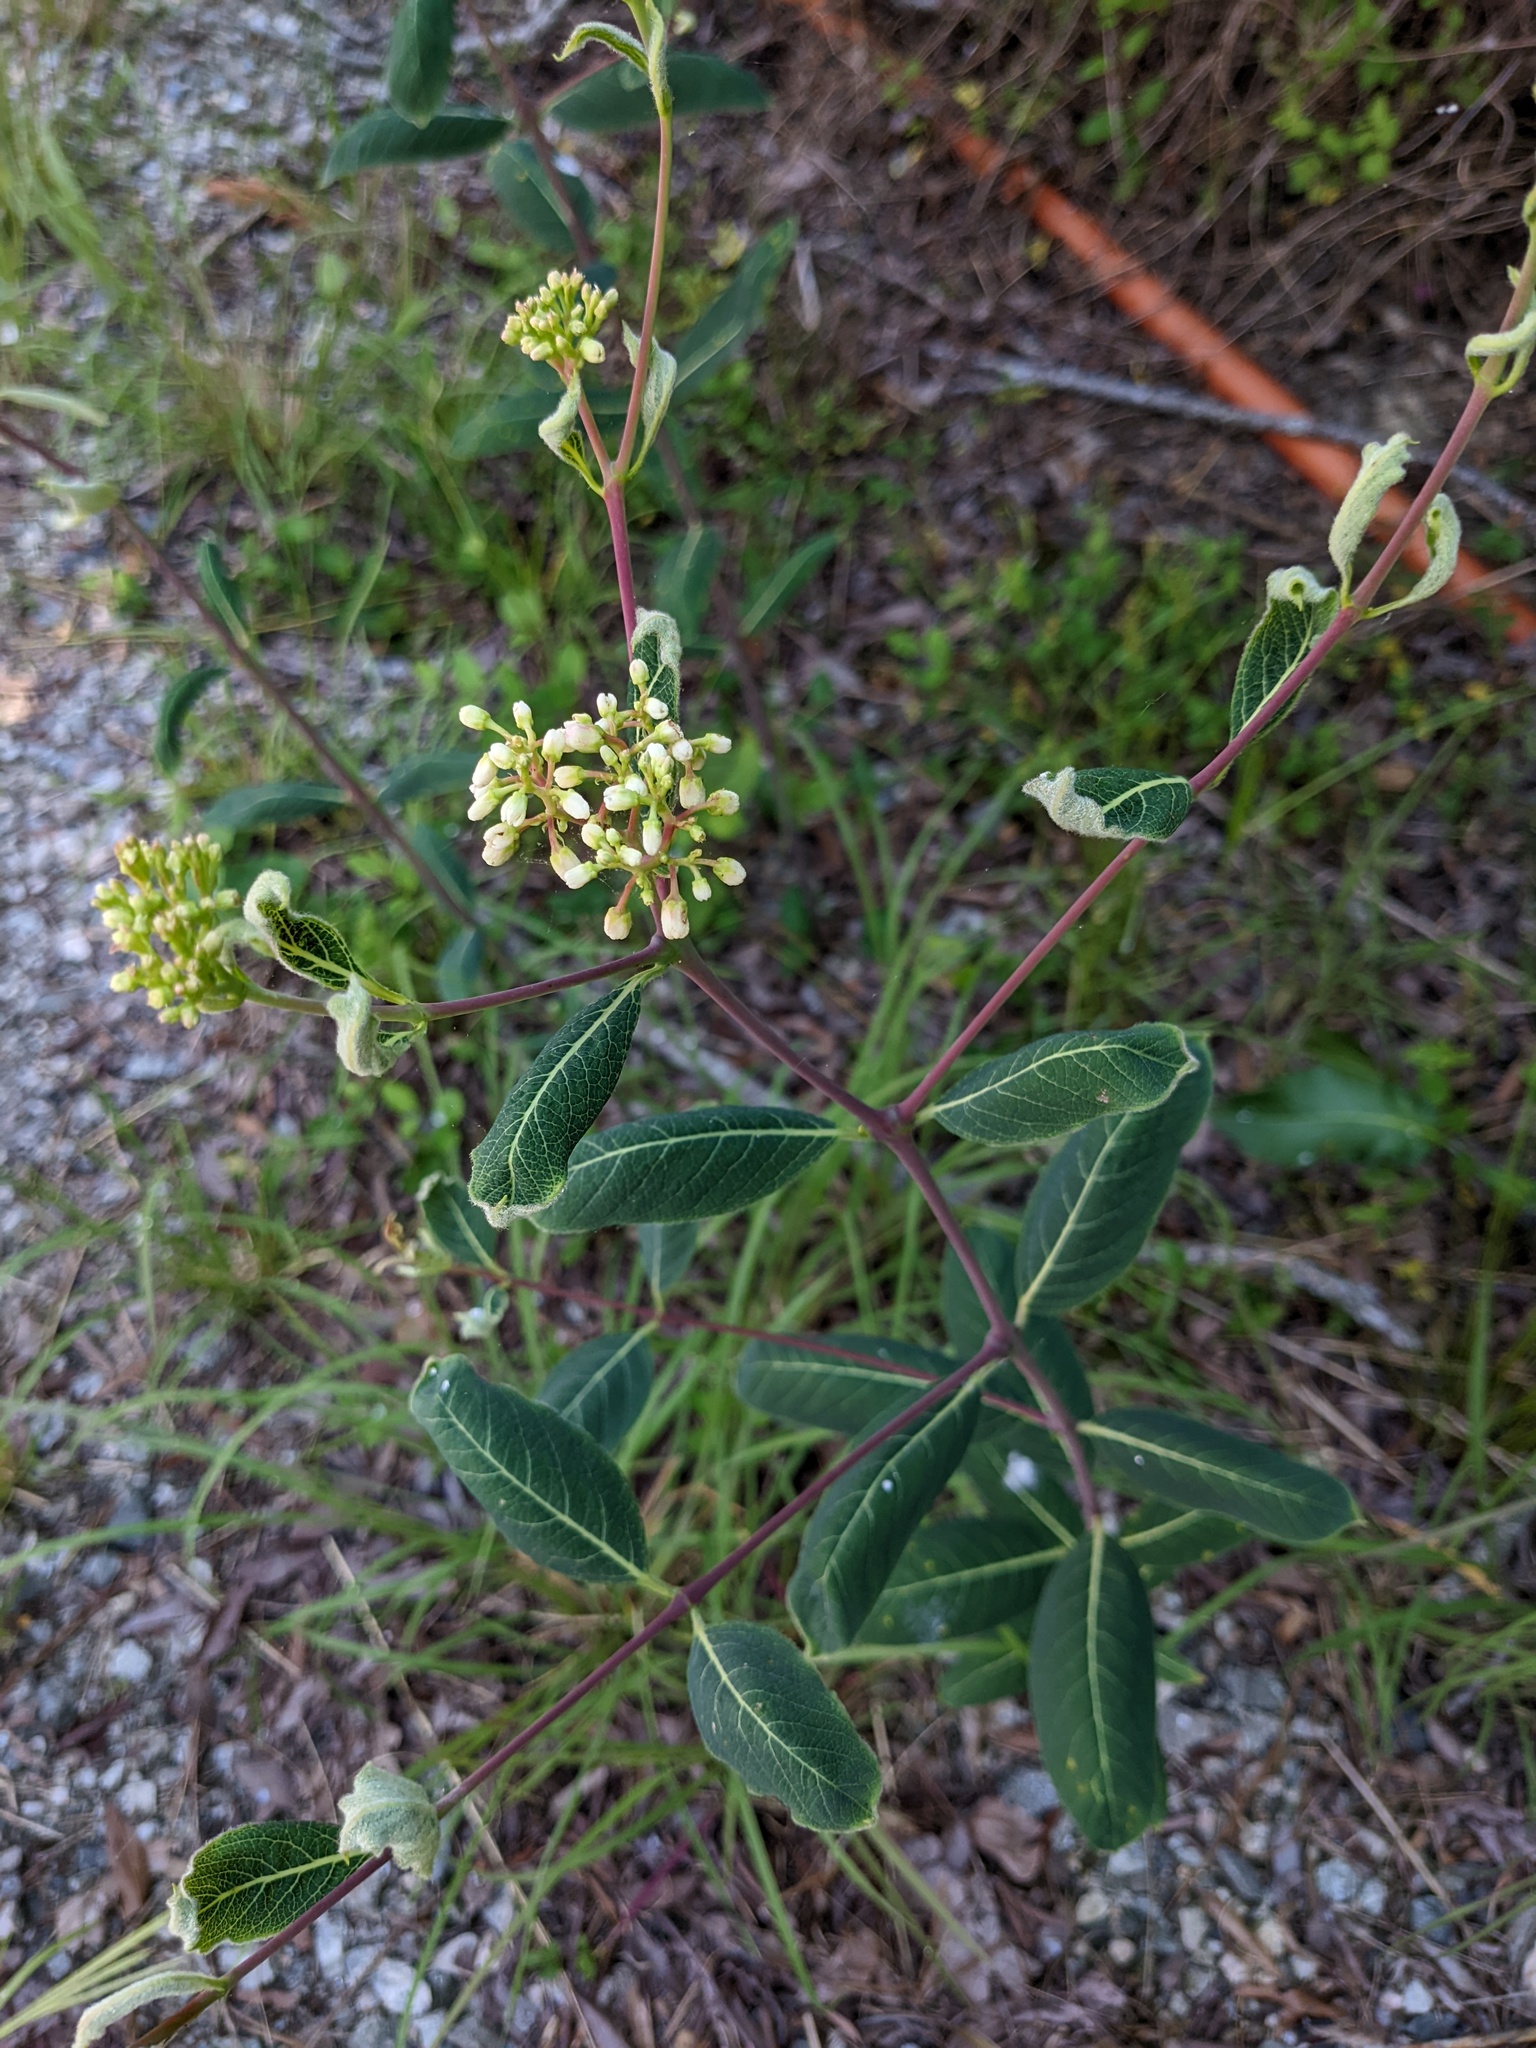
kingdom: Plantae
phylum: Tracheophyta
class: Magnoliopsida
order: Gentianales
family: Apocynaceae
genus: Apocynum
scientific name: Apocynum cannabinum
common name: Hemp dogbane
